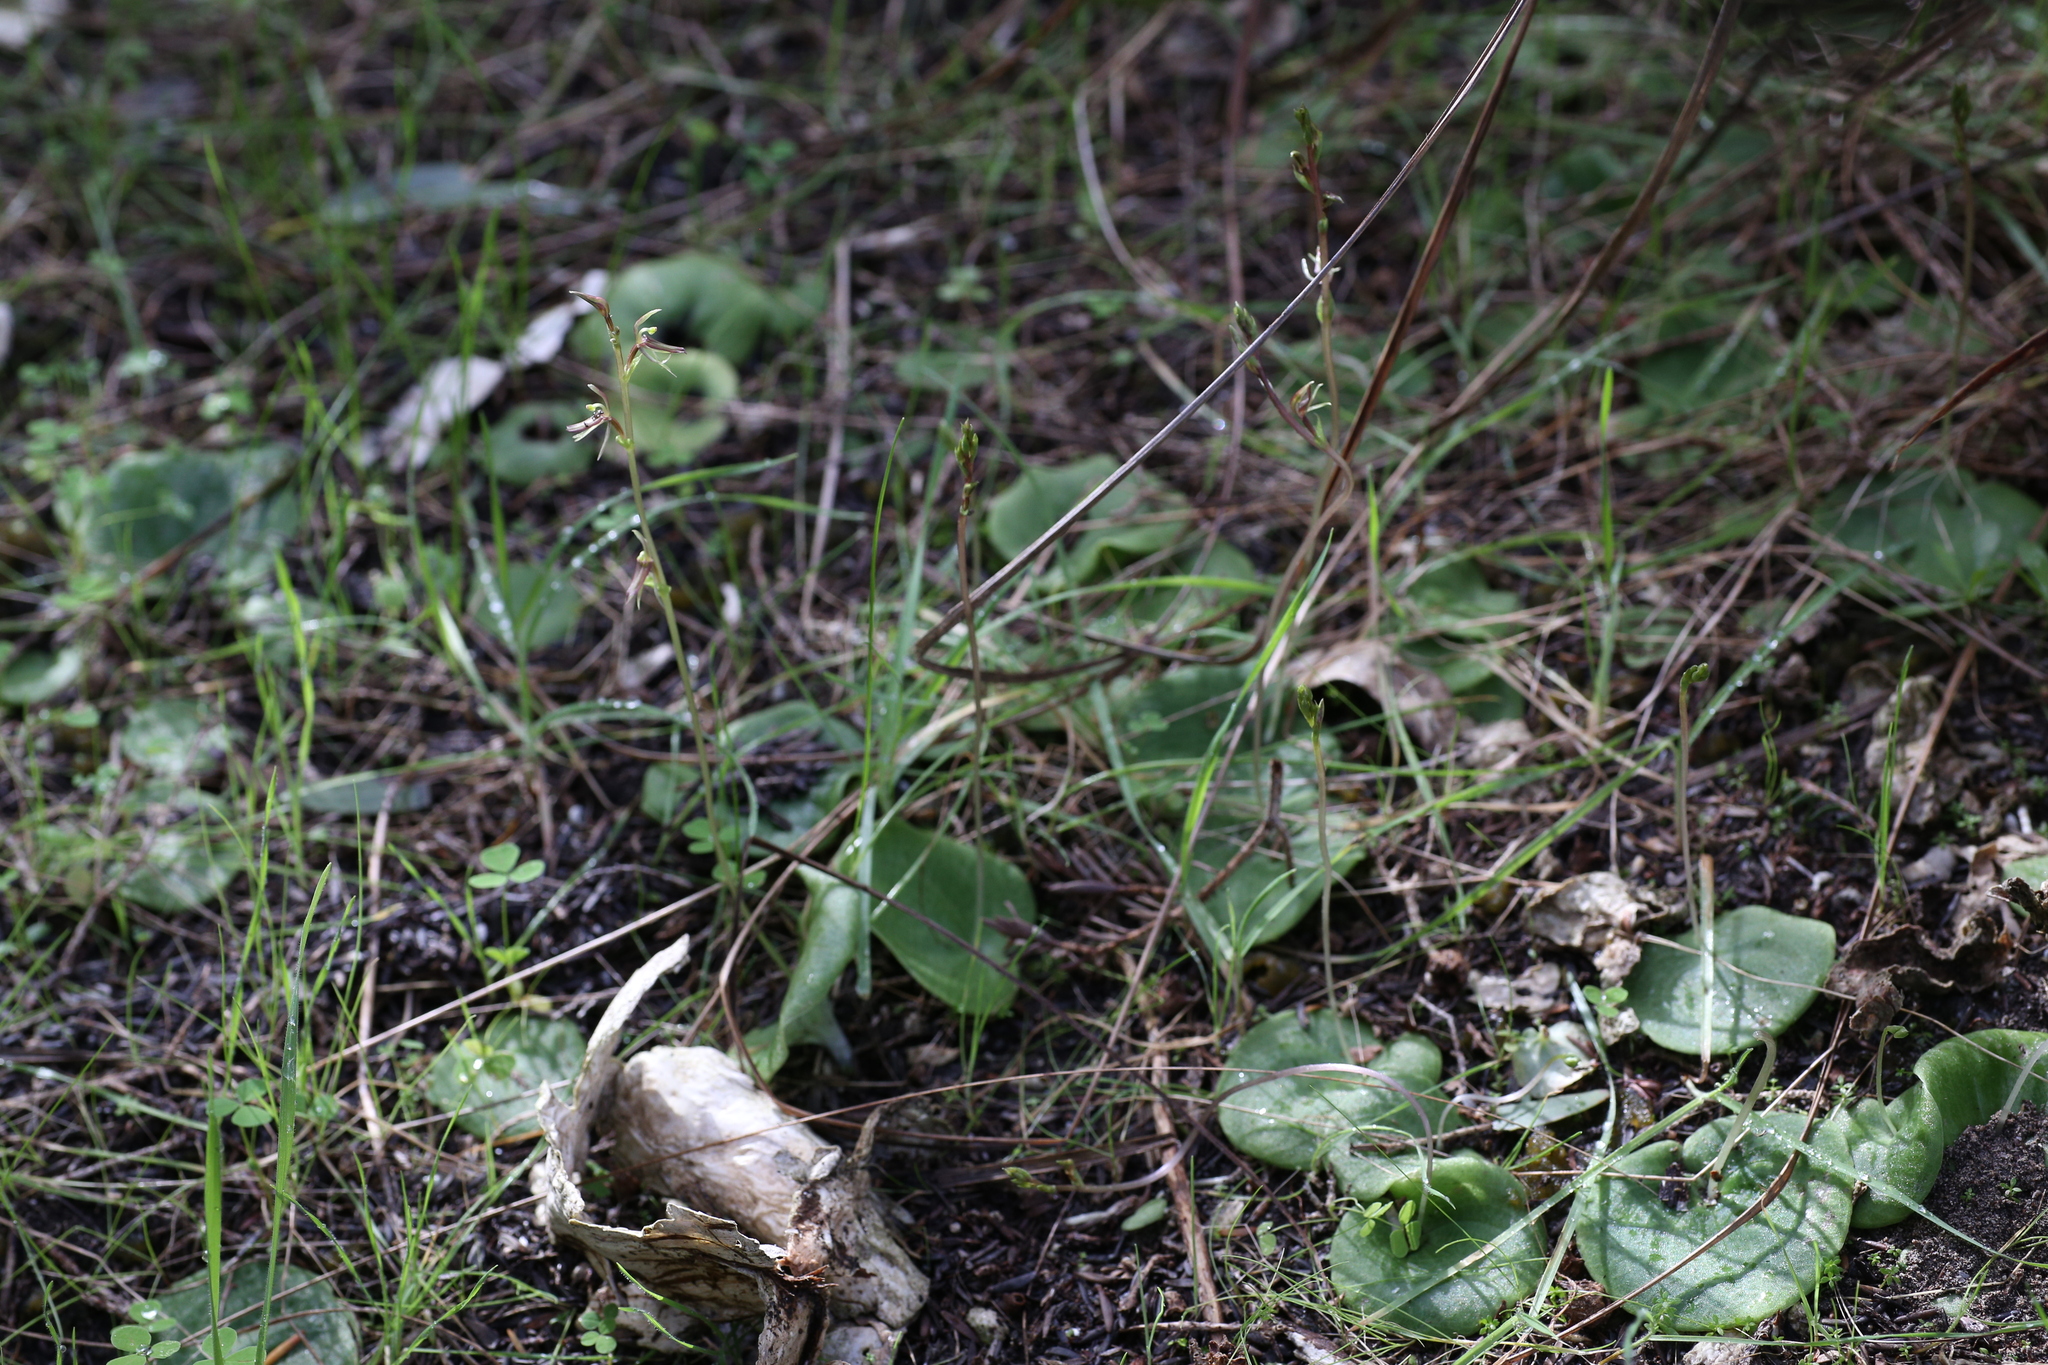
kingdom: Plantae
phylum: Tracheophyta
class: Liliopsida
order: Asparagales
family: Orchidaceae
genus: Cyrtostylis
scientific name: Cyrtostylis huegelii
